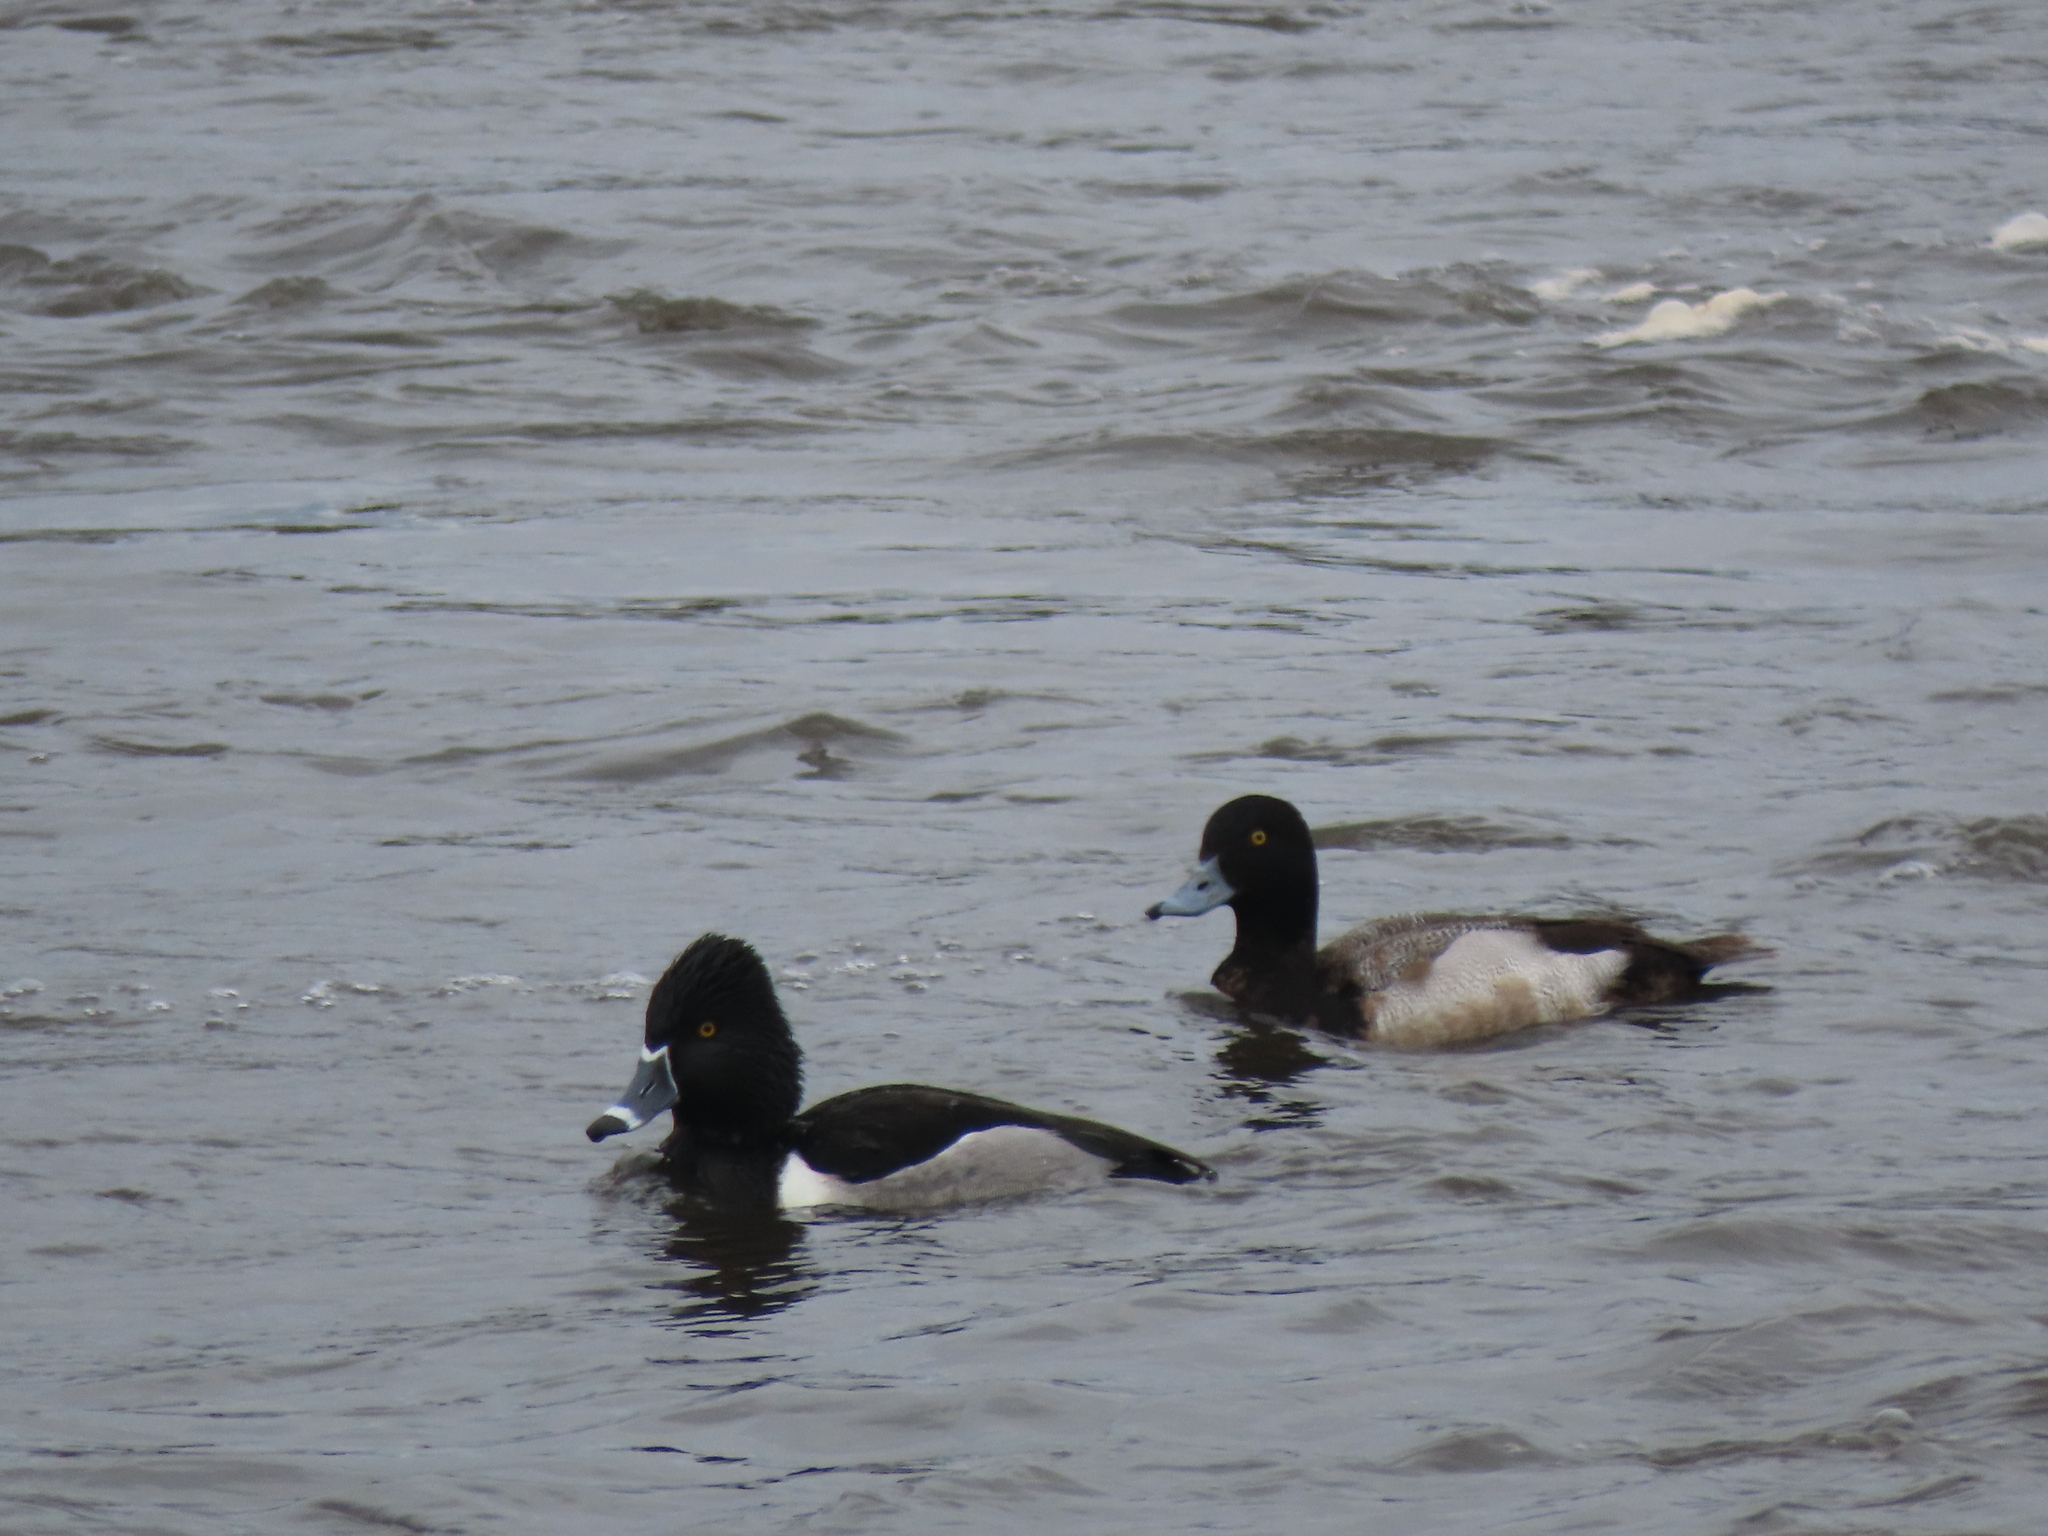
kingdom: Animalia
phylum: Chordata
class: Aves
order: Anseriformes
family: Anatidae
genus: Aythya
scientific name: Aythya affinis
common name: Lesser scaup
